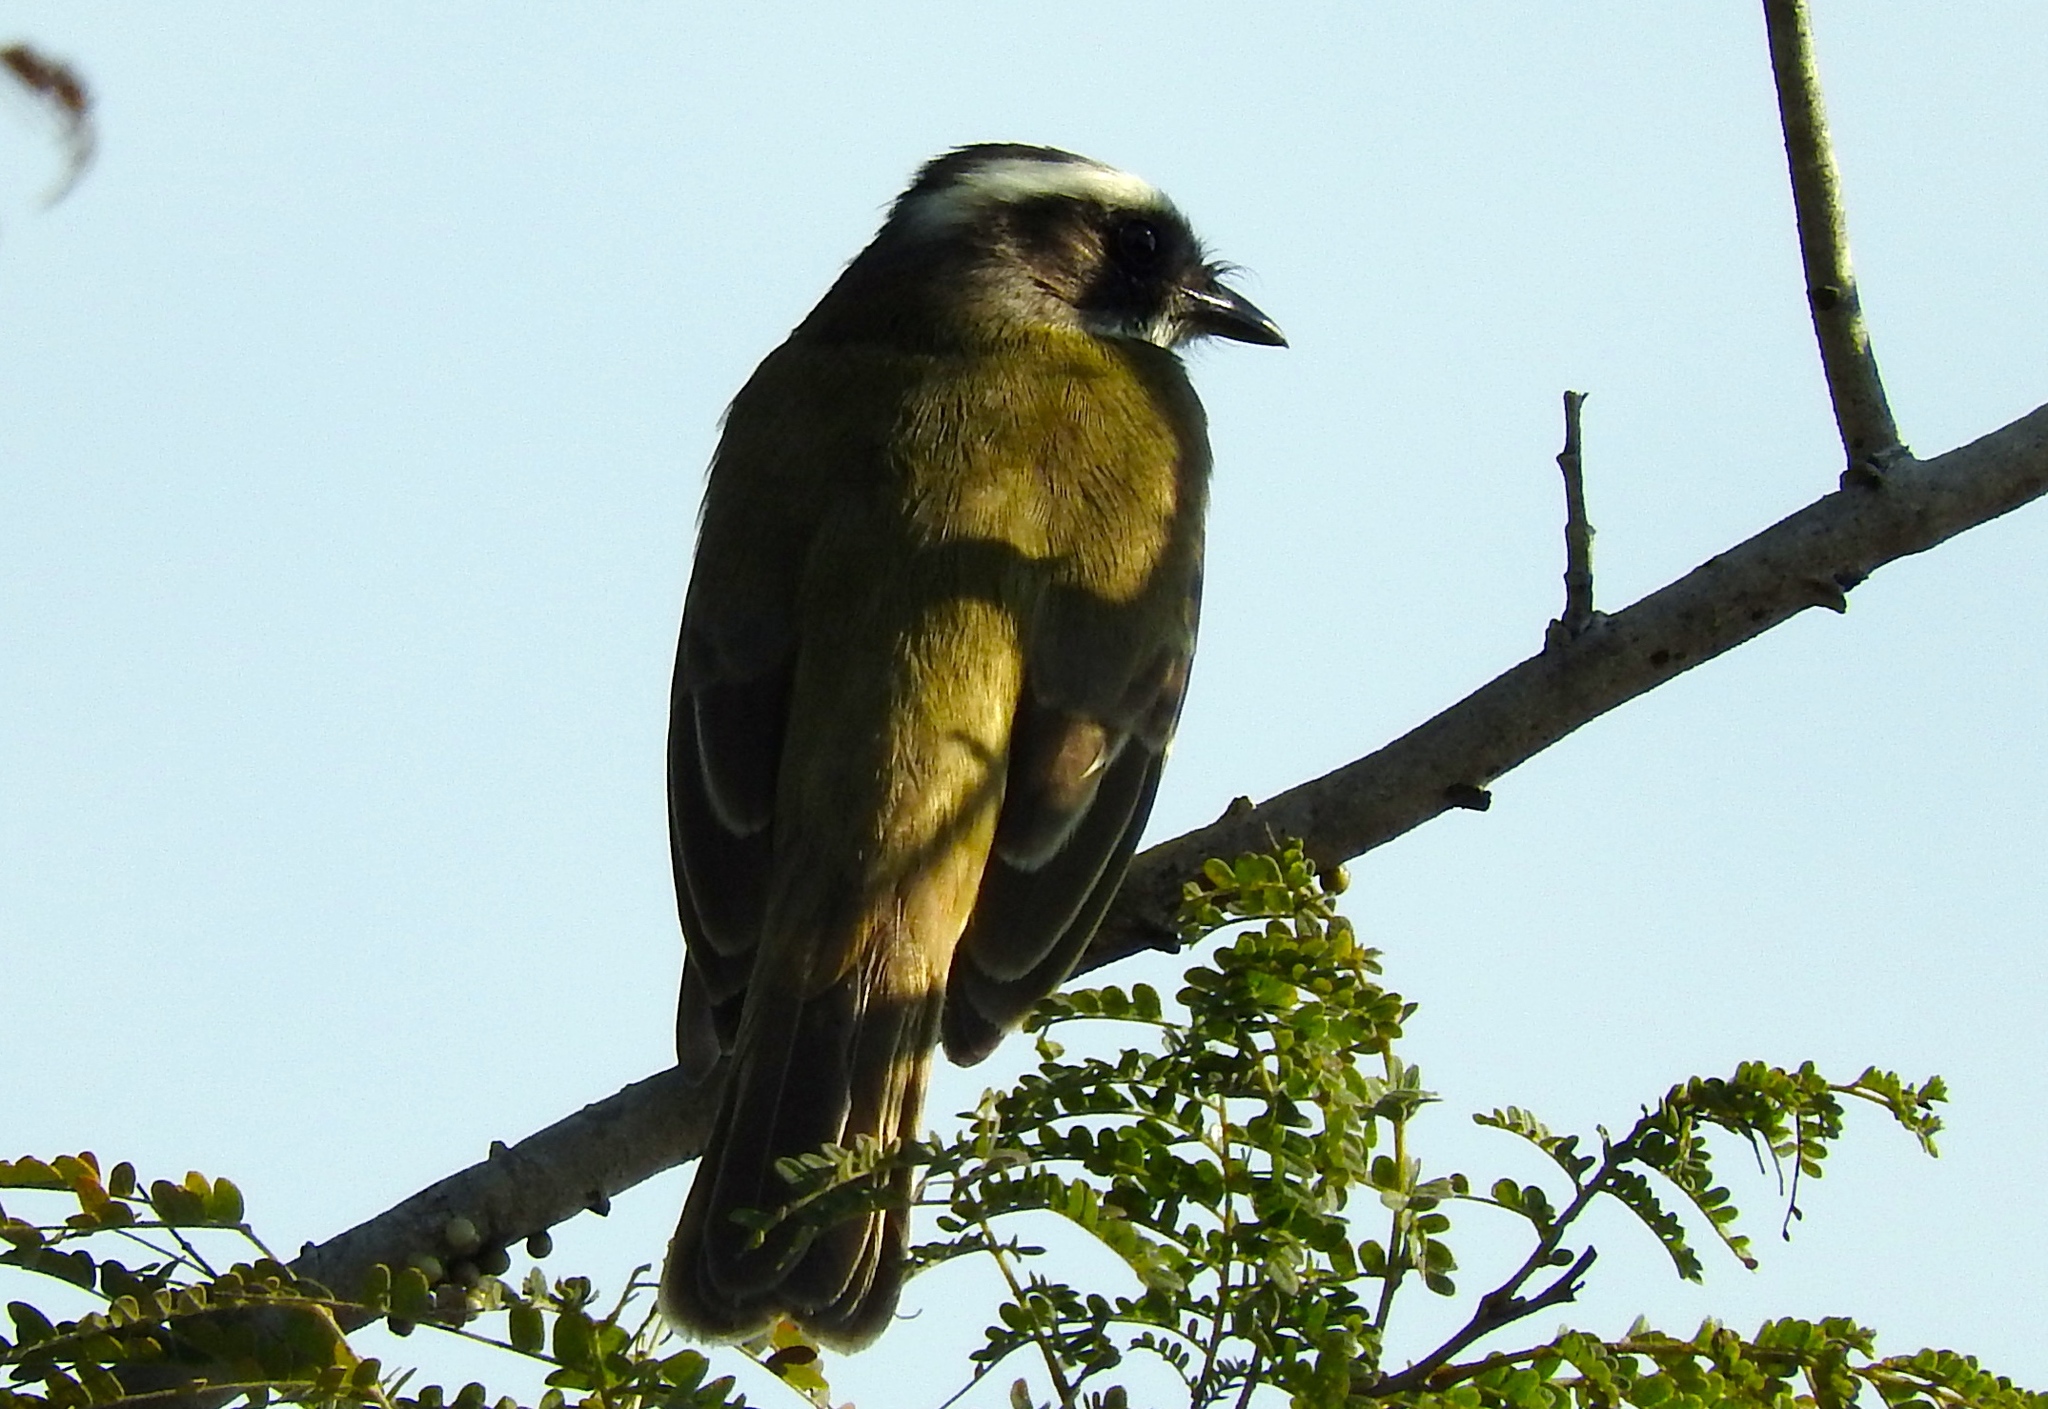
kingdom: Animalia
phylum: Chordata
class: Aves
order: Passeriformes
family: Tyrannidae
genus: Myiozetetes
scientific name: Myiozetetes similis
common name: Social flycatcher
